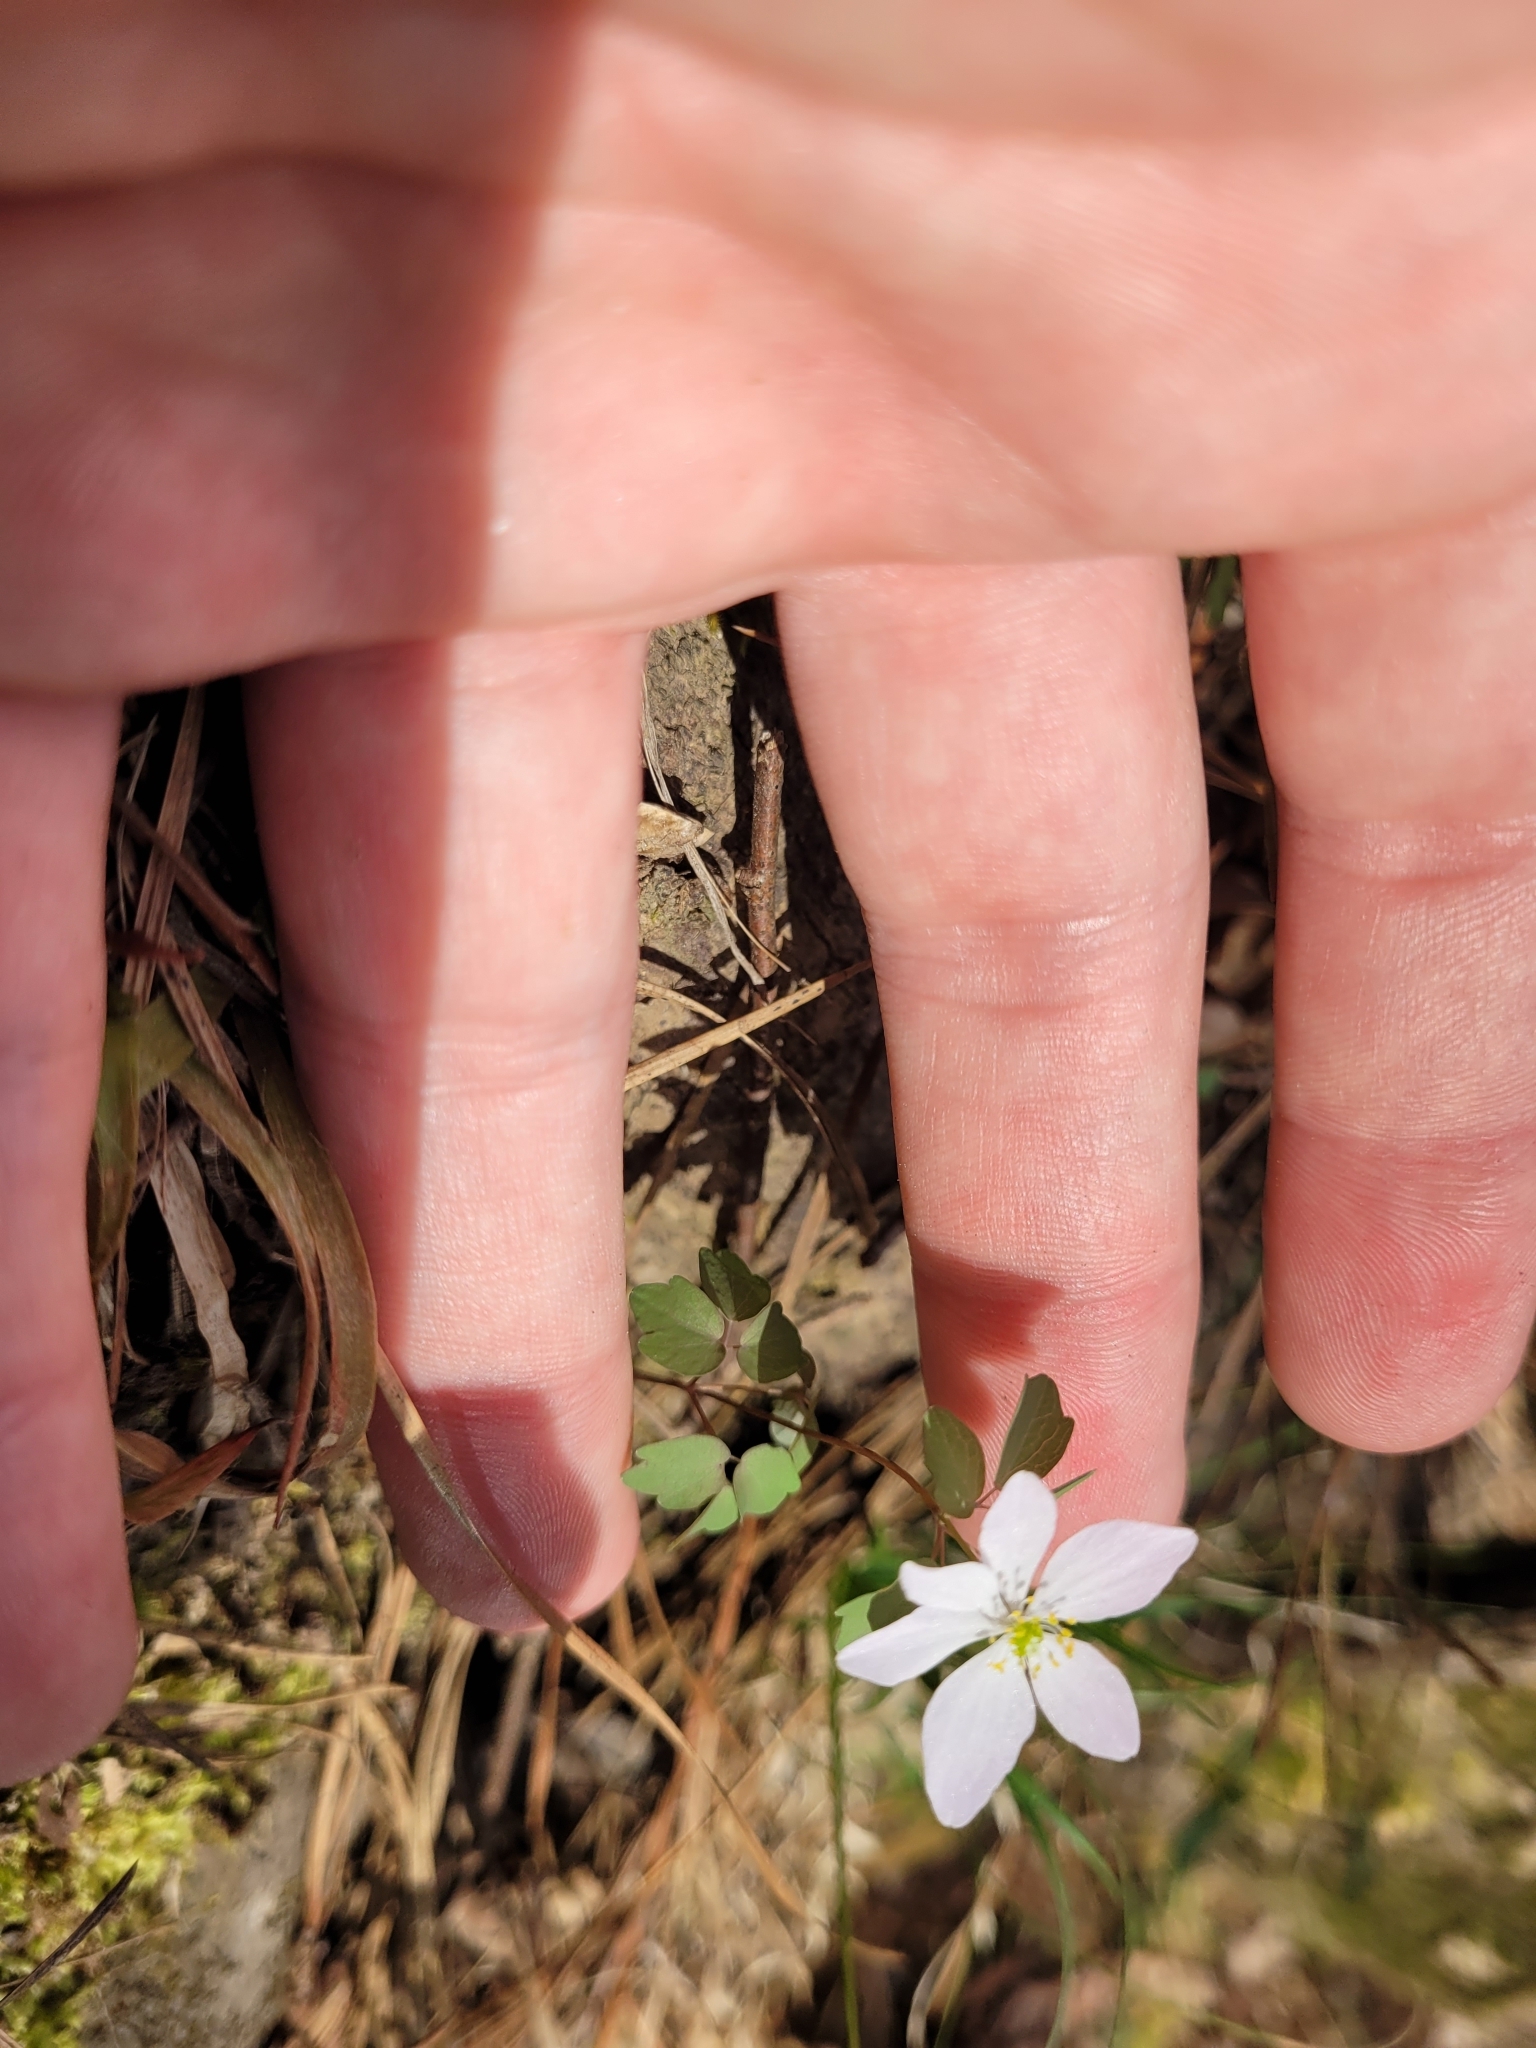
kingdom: Plantae
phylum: Tracheophyta
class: Magnoliopsida
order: Ranunculales
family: Ranunculaceae
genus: Thalictrum
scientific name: Thalictrum thalictroides
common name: Rue-anemone
